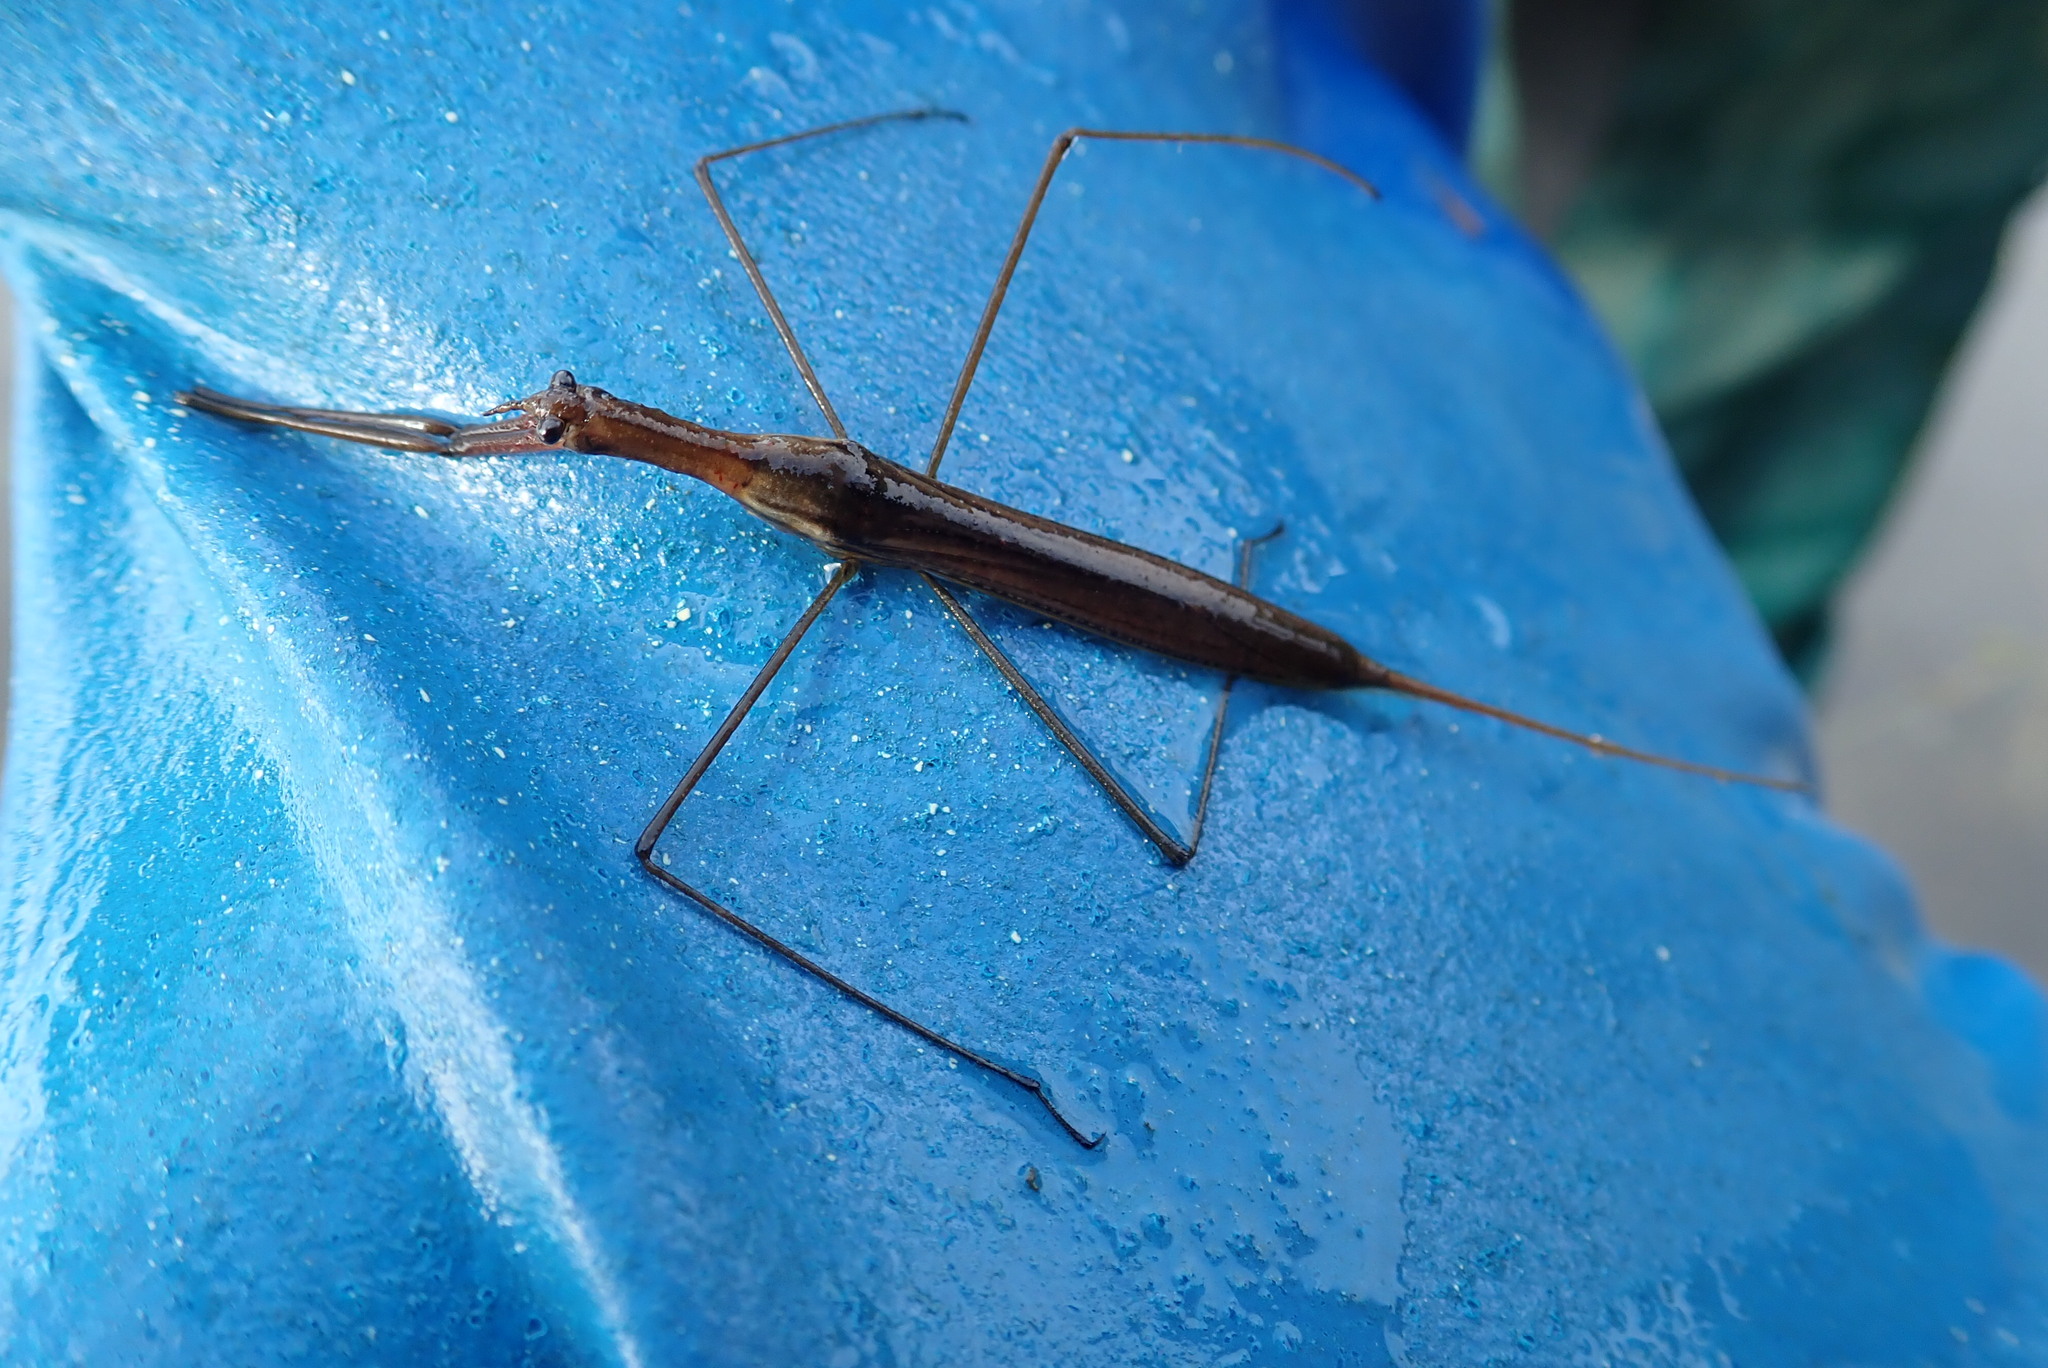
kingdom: Animalia
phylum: Arthropoda
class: Insecta
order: Hemiptera
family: Nepidae
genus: Ranatra
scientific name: Ranatra fusca
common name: Brown waterscorpion
